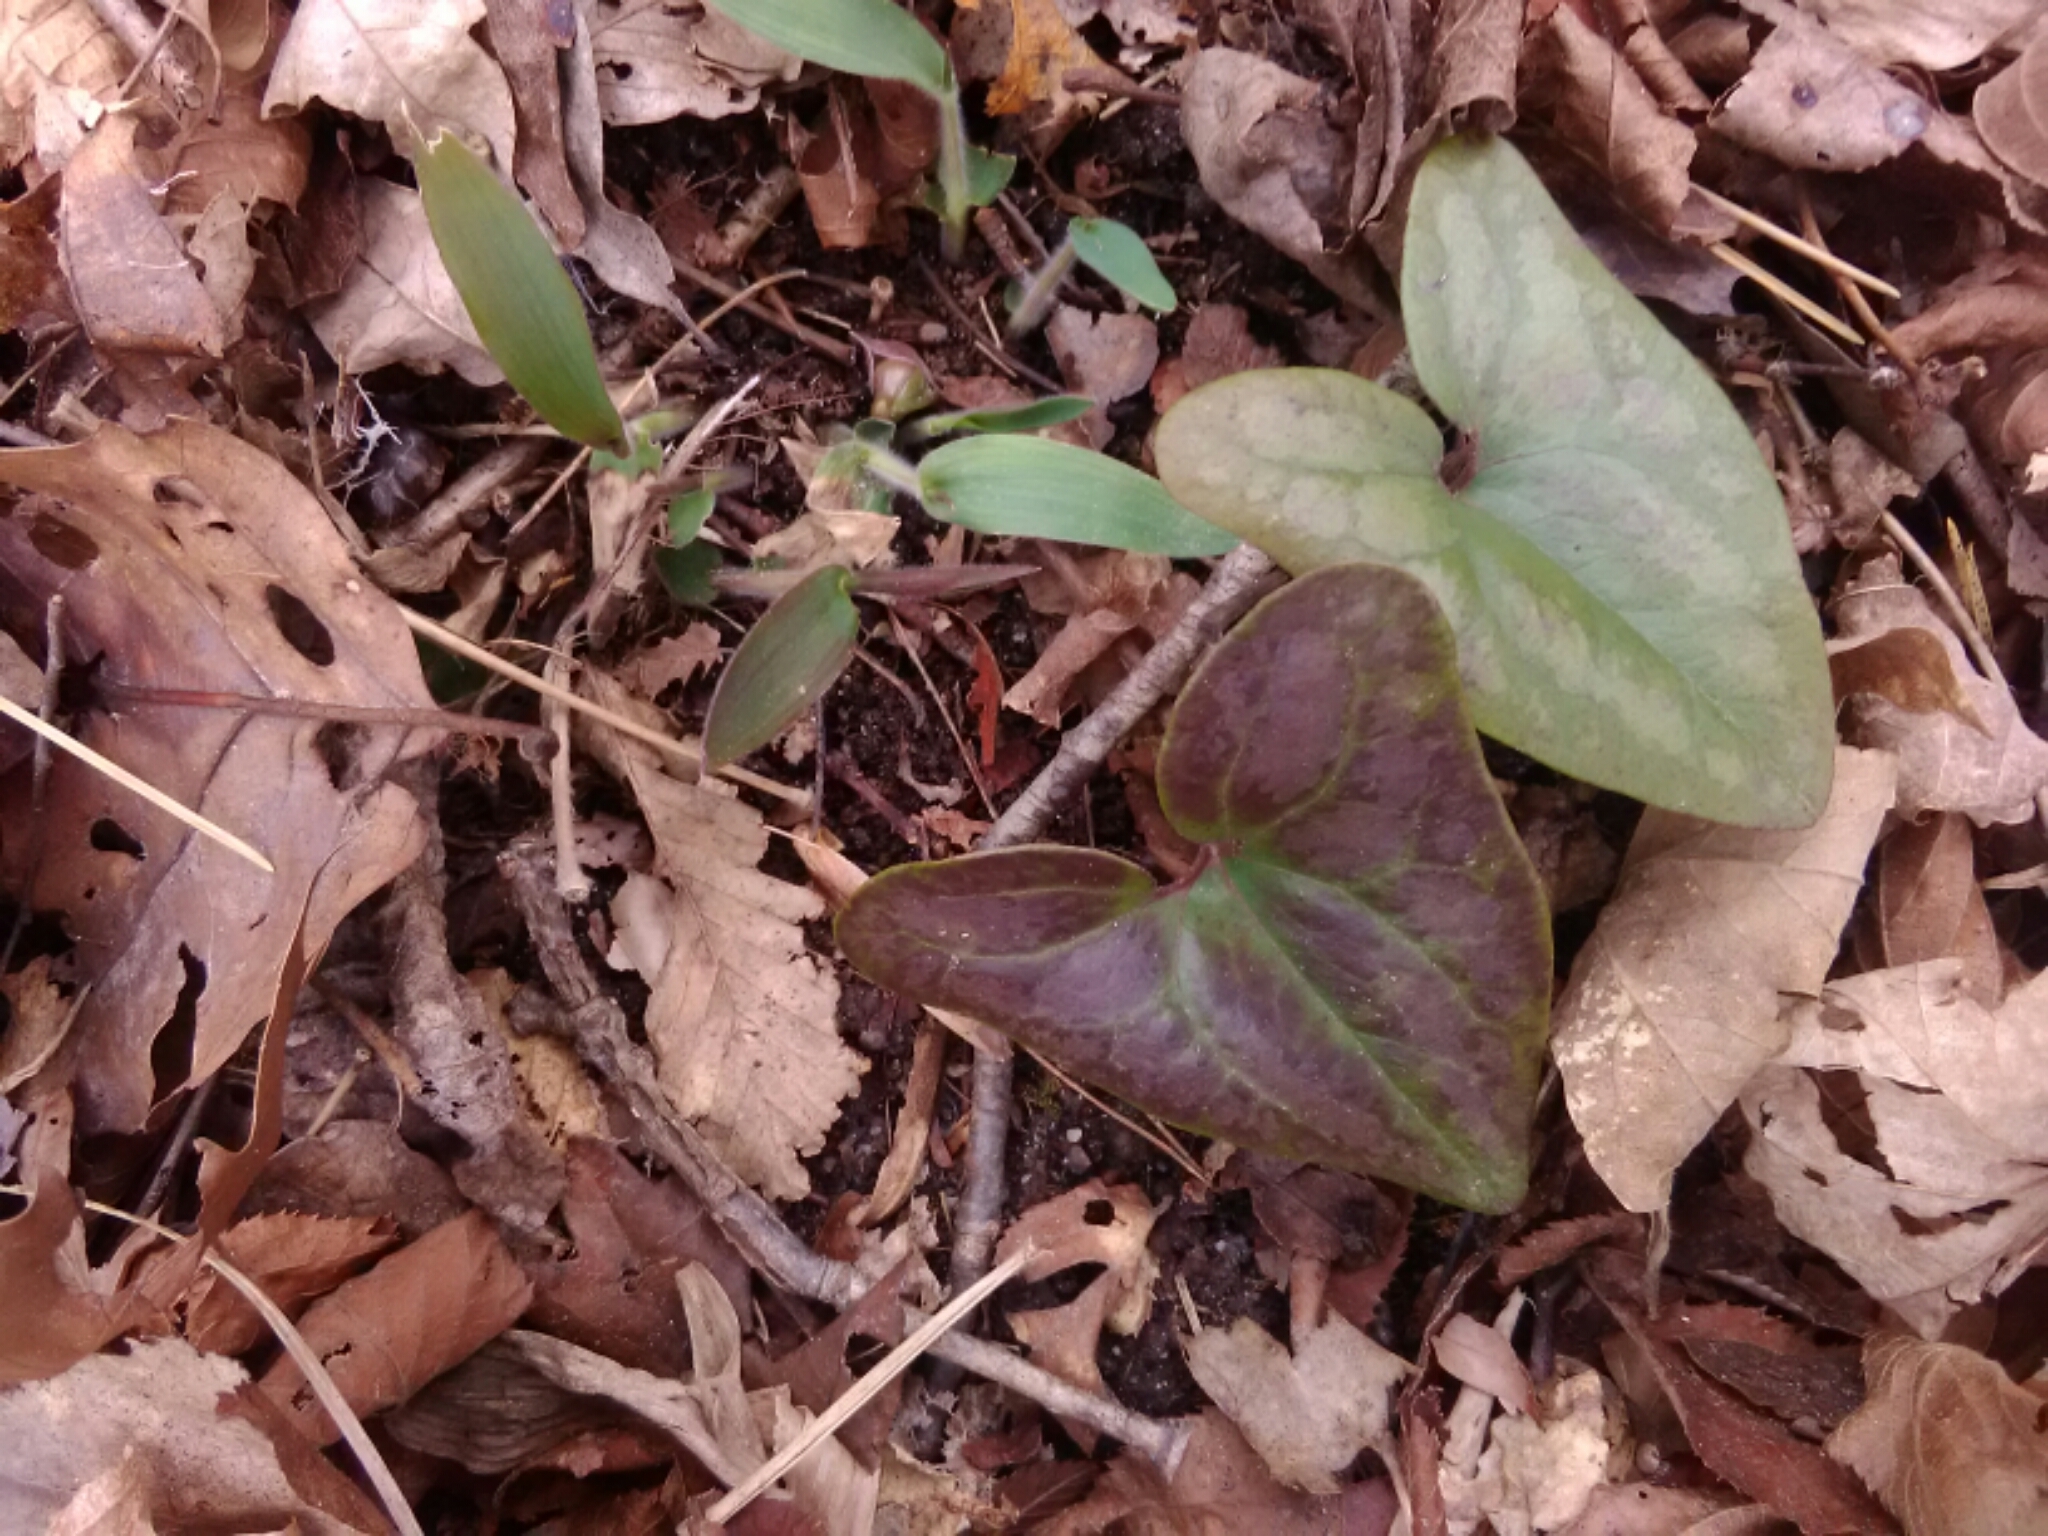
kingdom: Plantae
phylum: Tracheophyta
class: Magnoliopsida
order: Piperales
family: Aristolochiaceae
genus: Hexastylis
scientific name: Hexastylis arifolia
